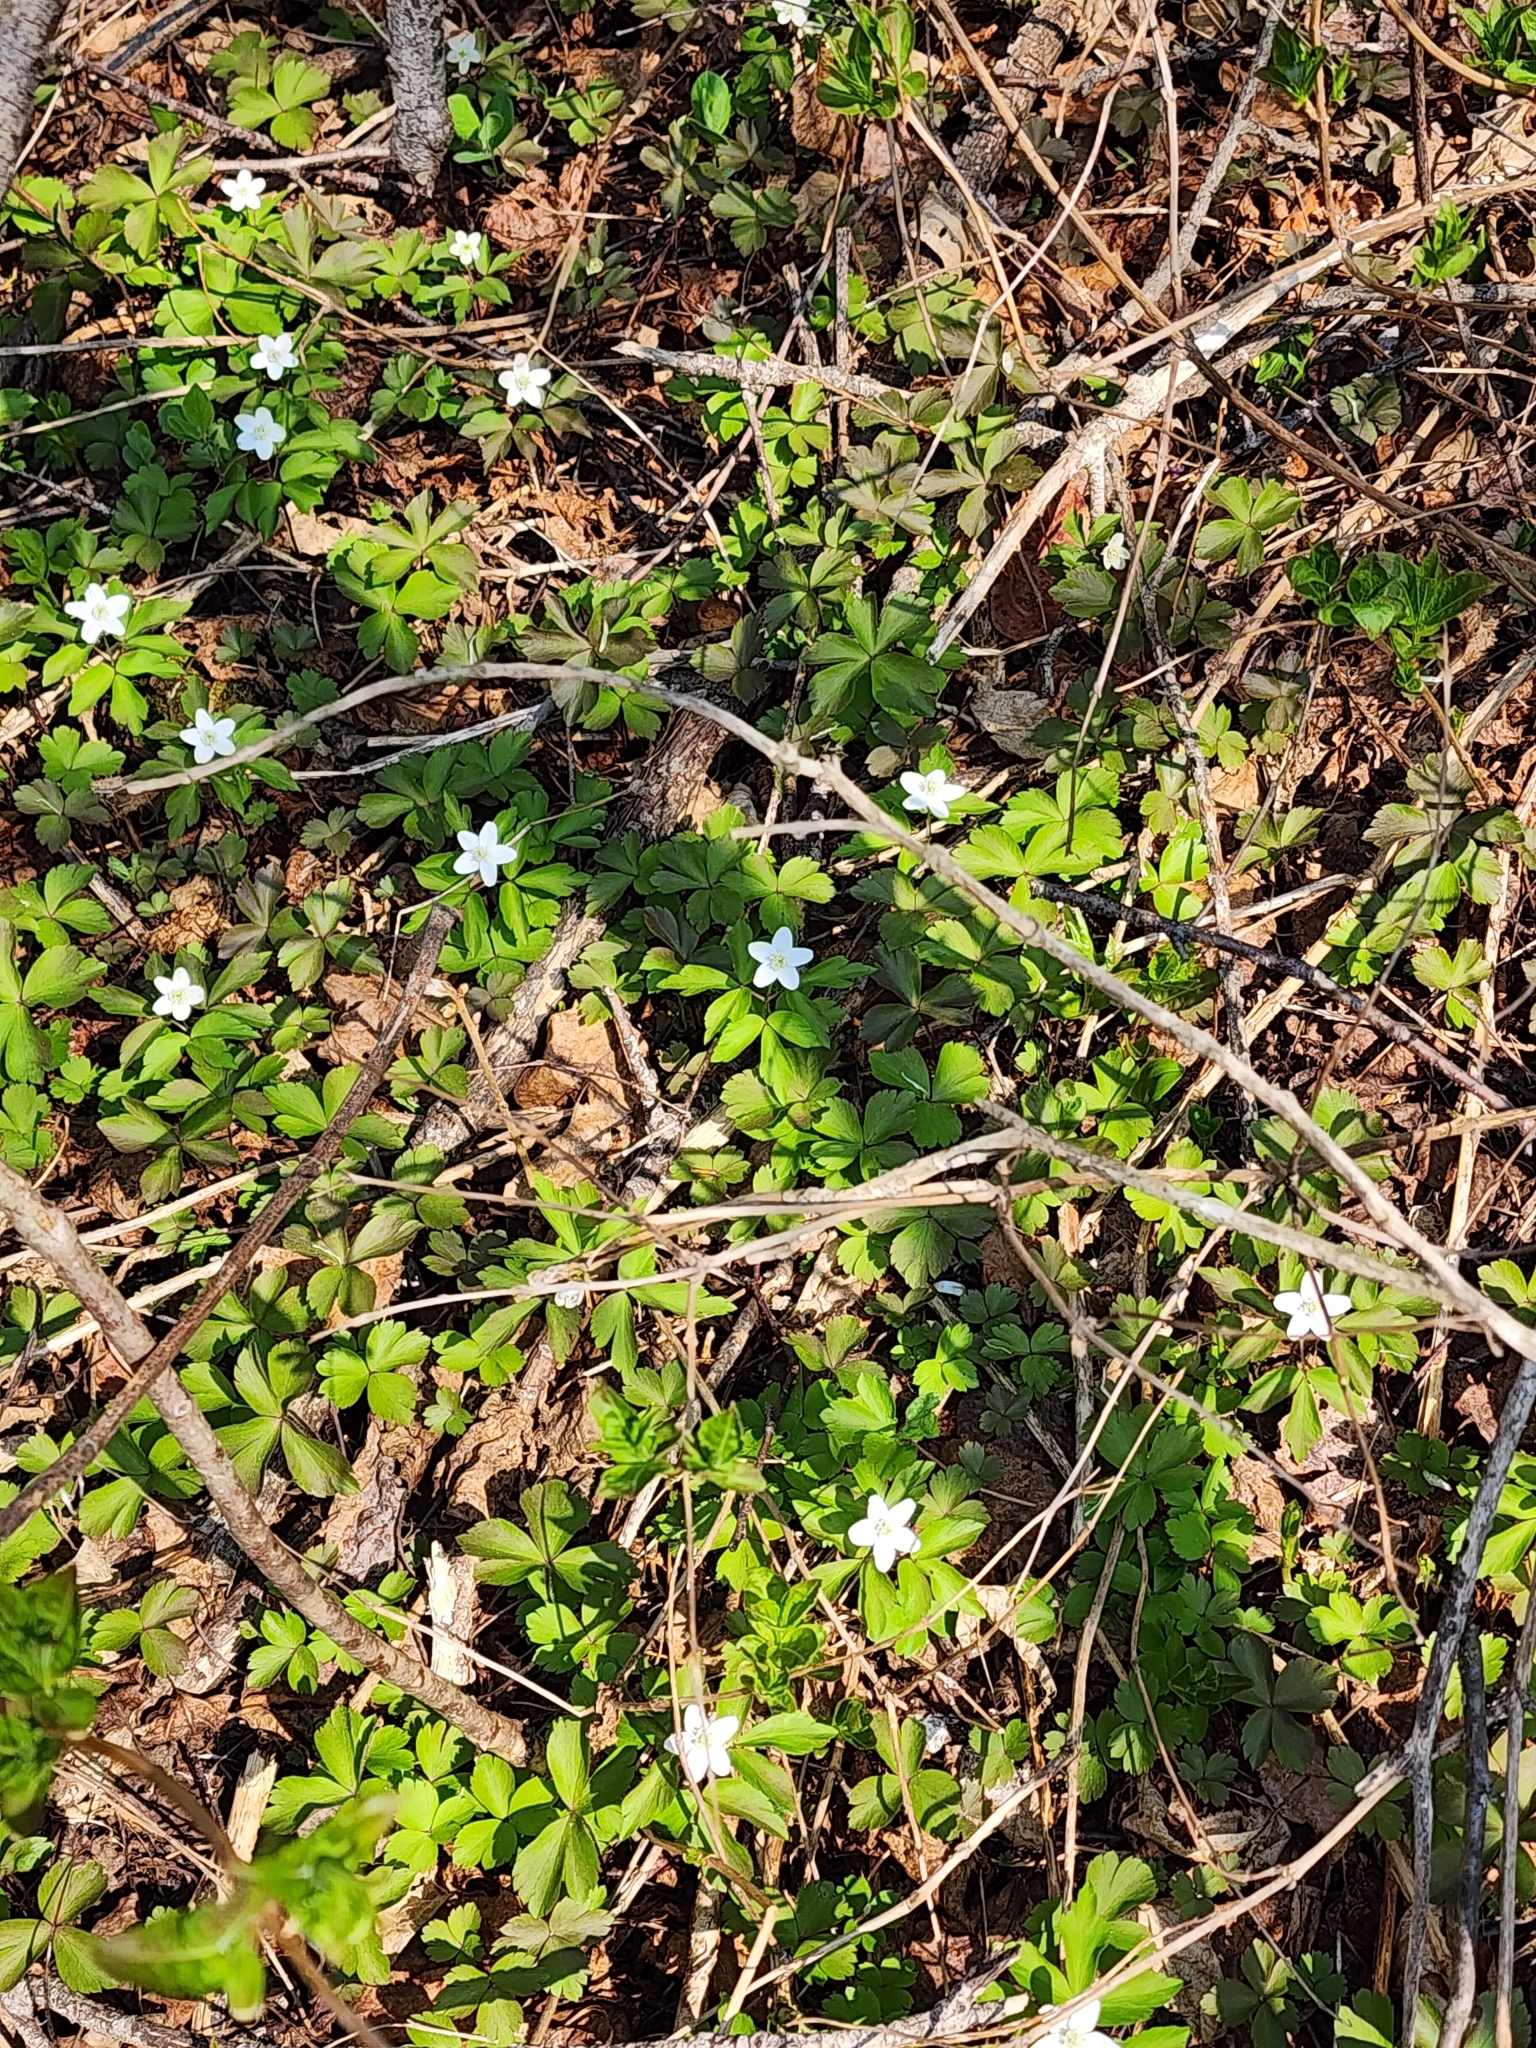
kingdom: Plantae
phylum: Tracheophyta
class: Magnoliopsida
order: Ranunculales
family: Ranunculaceae
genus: Anemone
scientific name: Anemone quinquefolia
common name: Wood anemone
